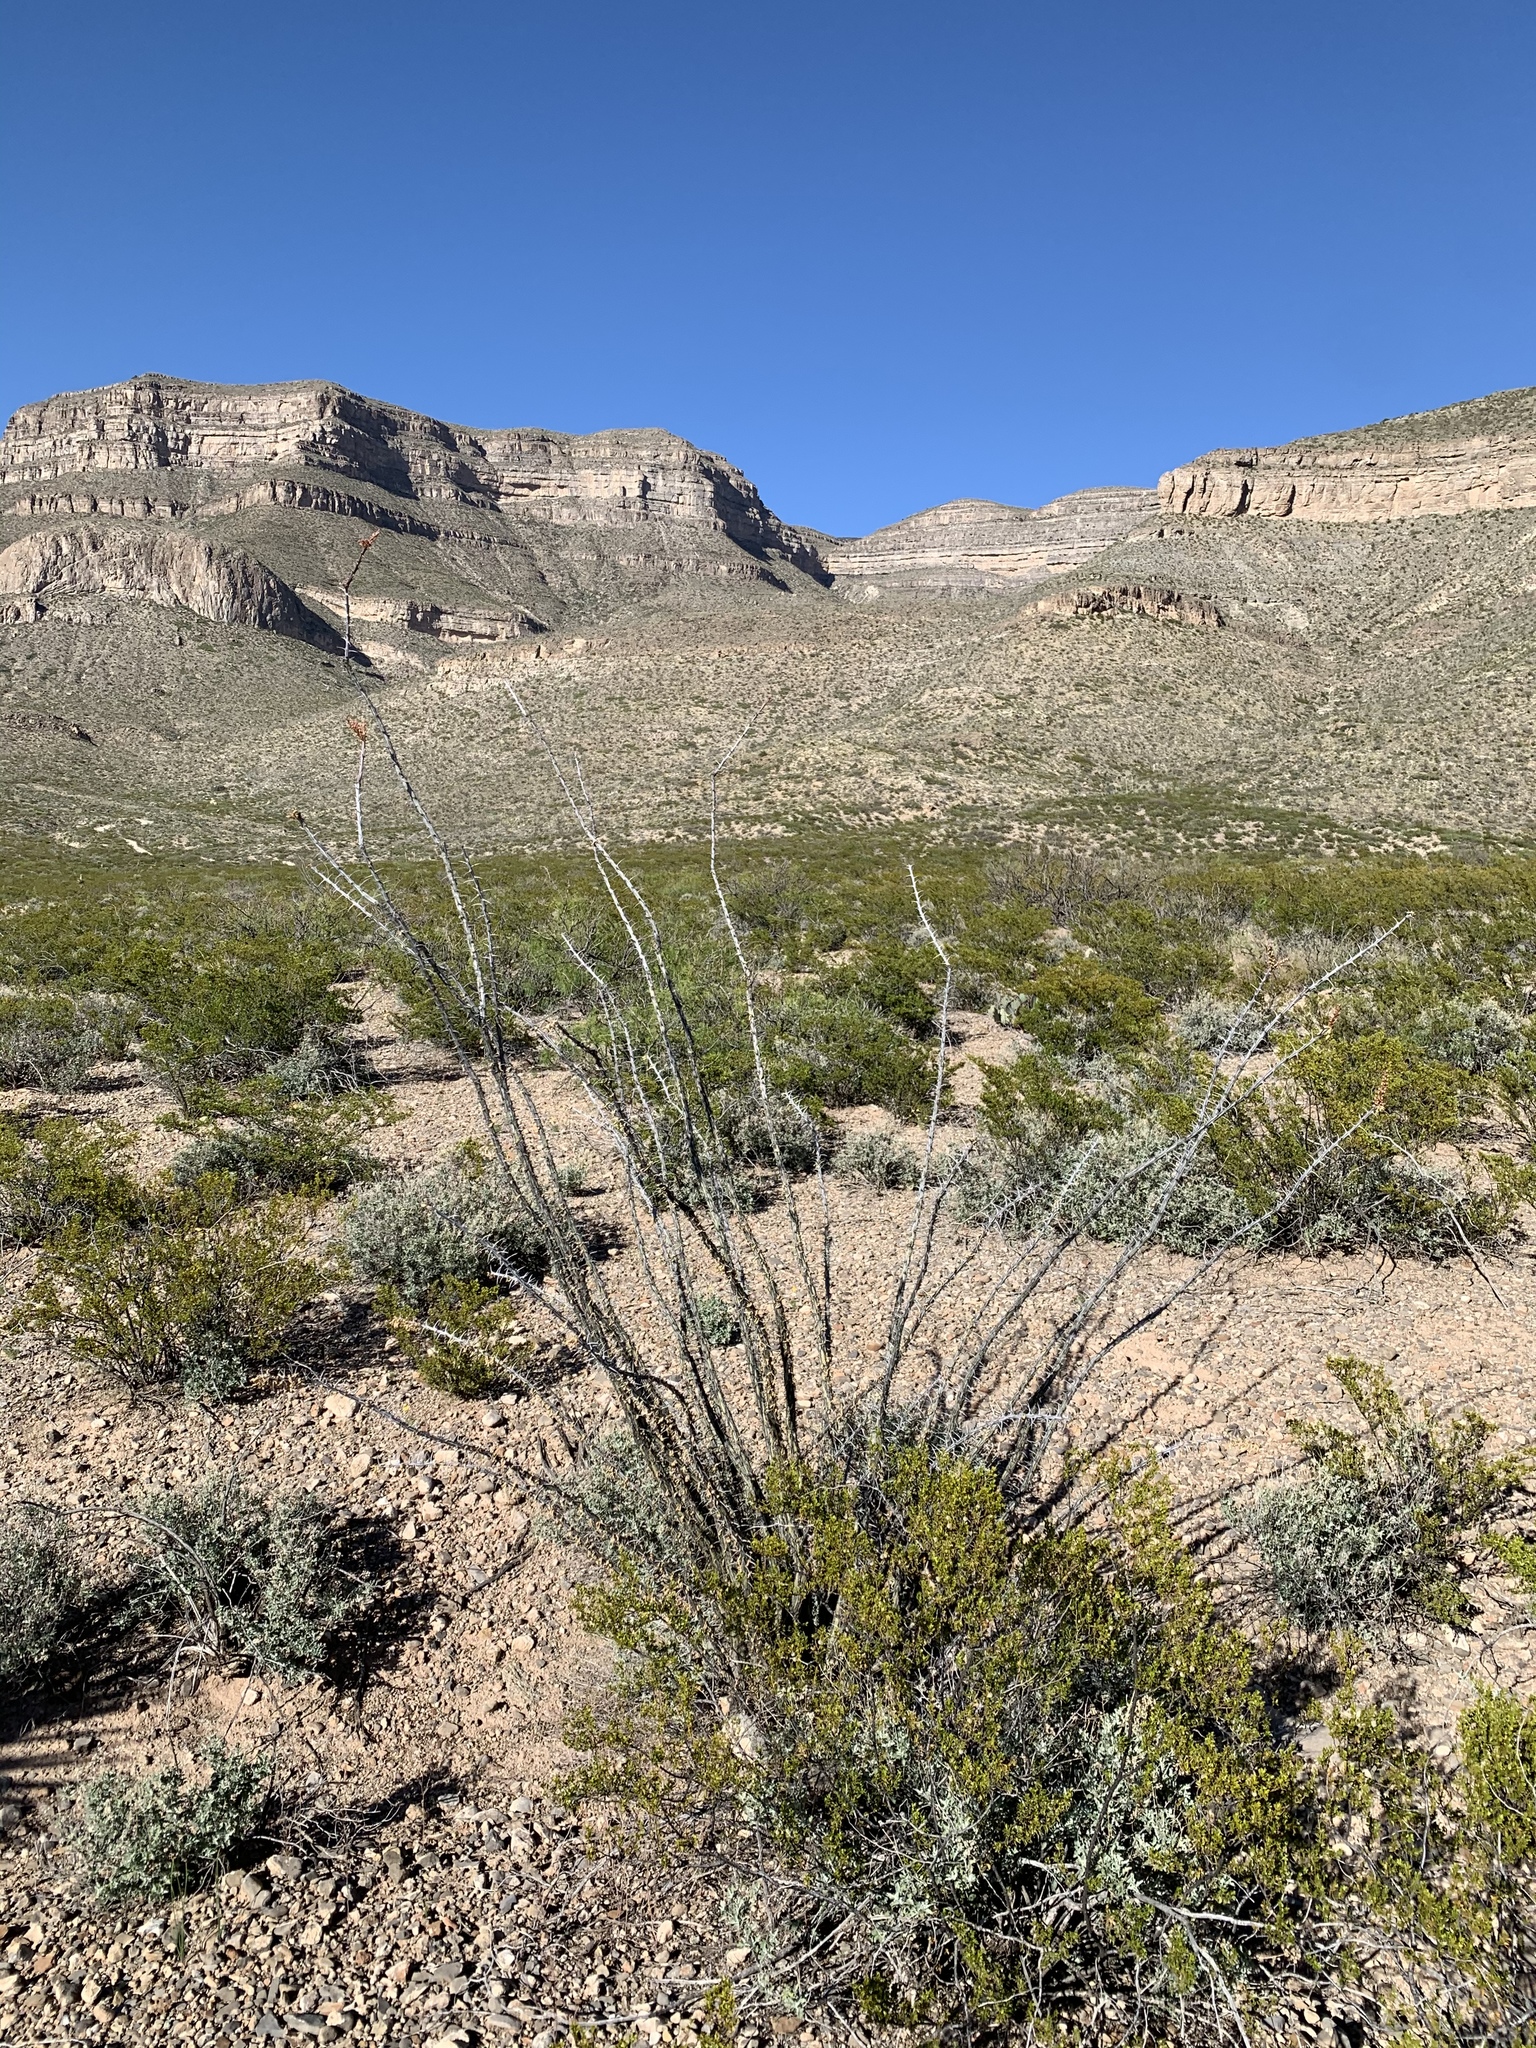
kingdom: Plantae
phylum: Tracheophyta
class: Magnoliopsida
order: Ericales
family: Fouquieriaceae
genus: Fouquieria
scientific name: Fouquieria splendens
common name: Vine-cactus
